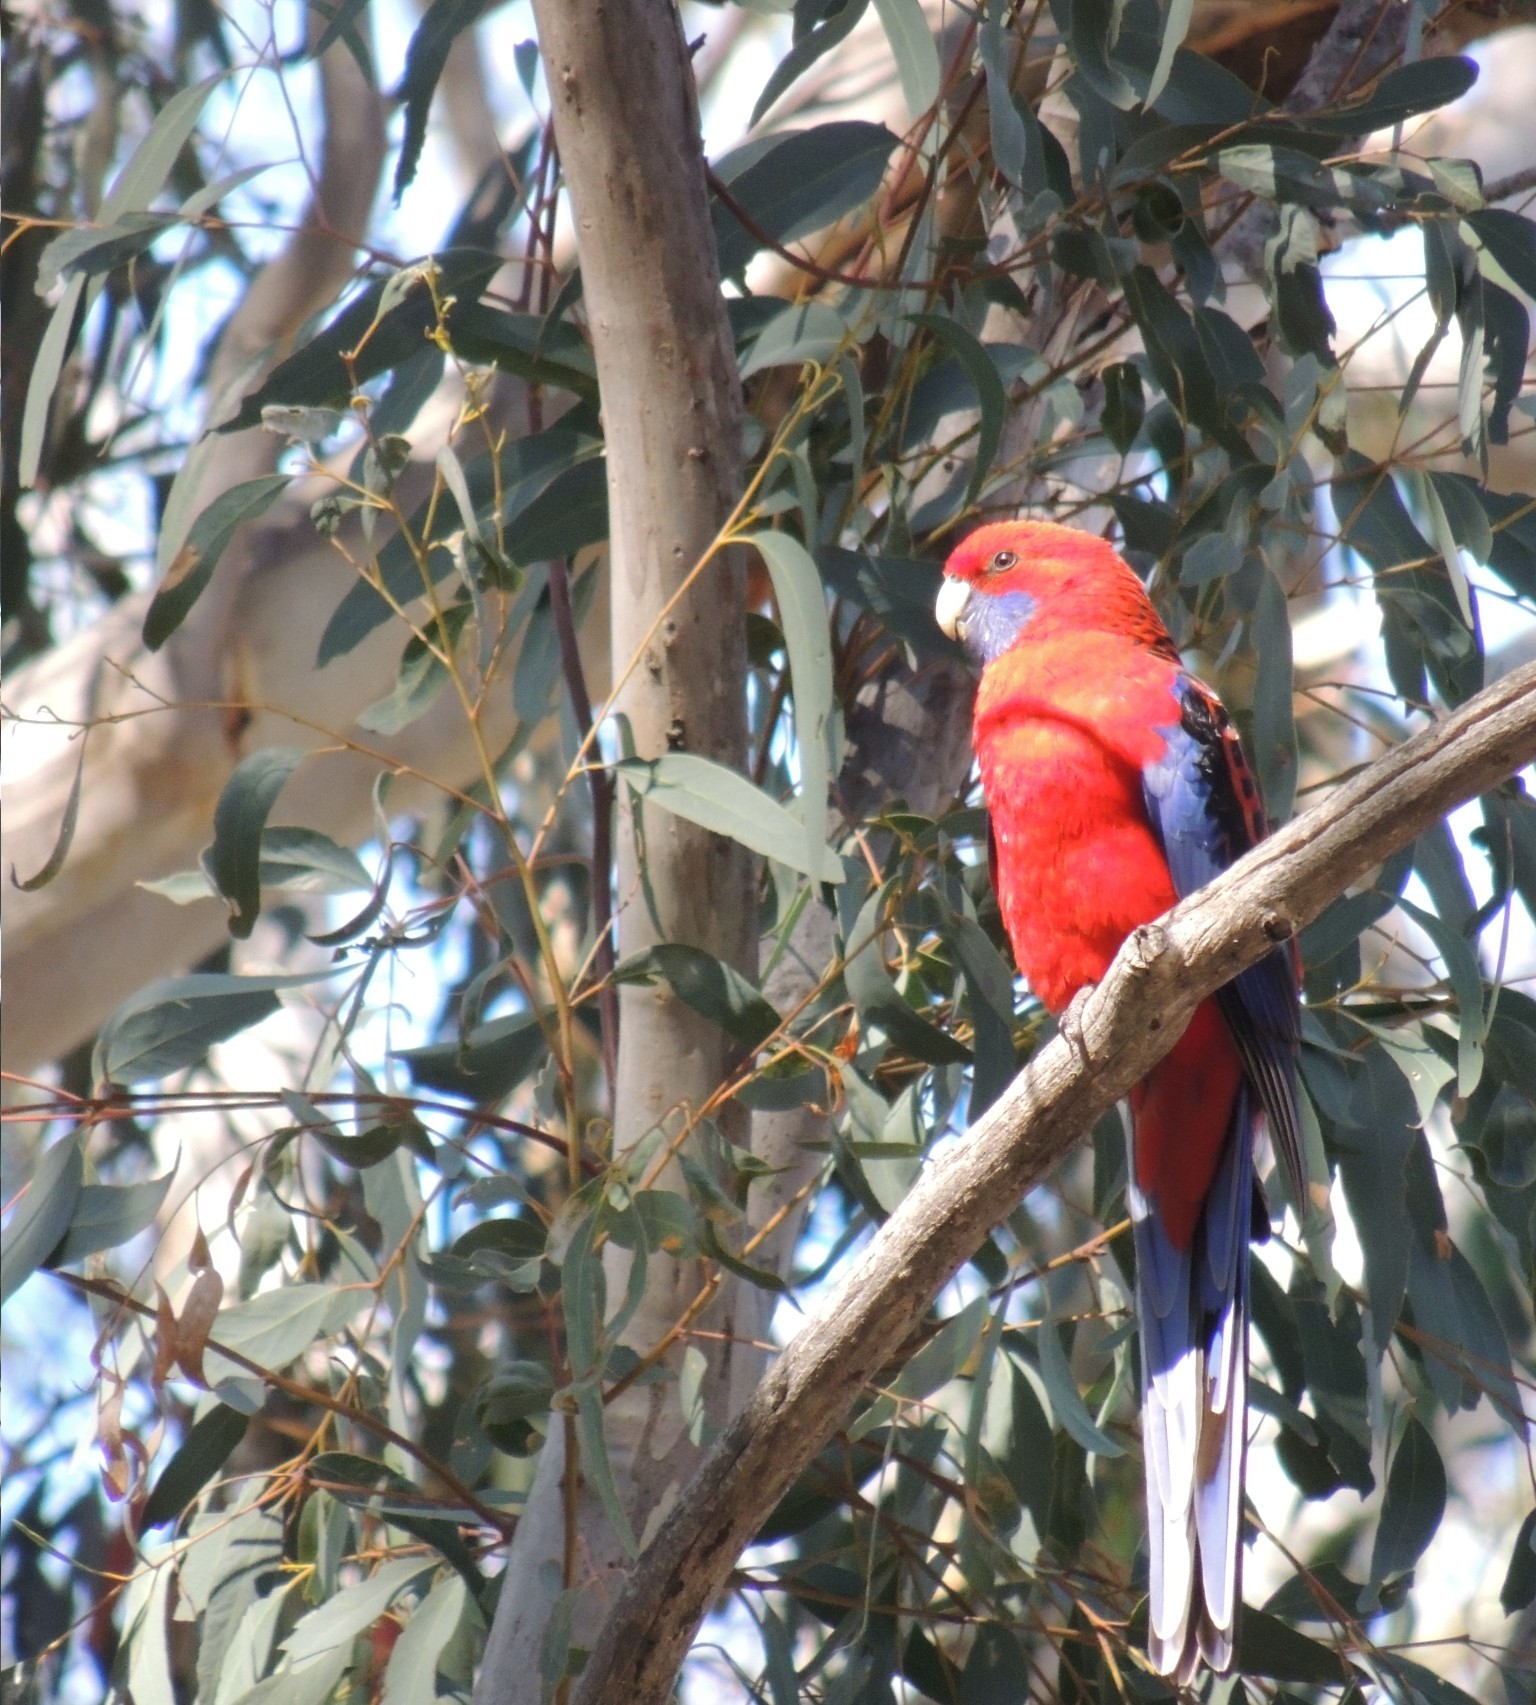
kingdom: Animalia
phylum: Chordata
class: Aves
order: Psittaciformes
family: Psittacidae
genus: Platycercus
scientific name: Platycercus elegans
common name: Crimson rosella
